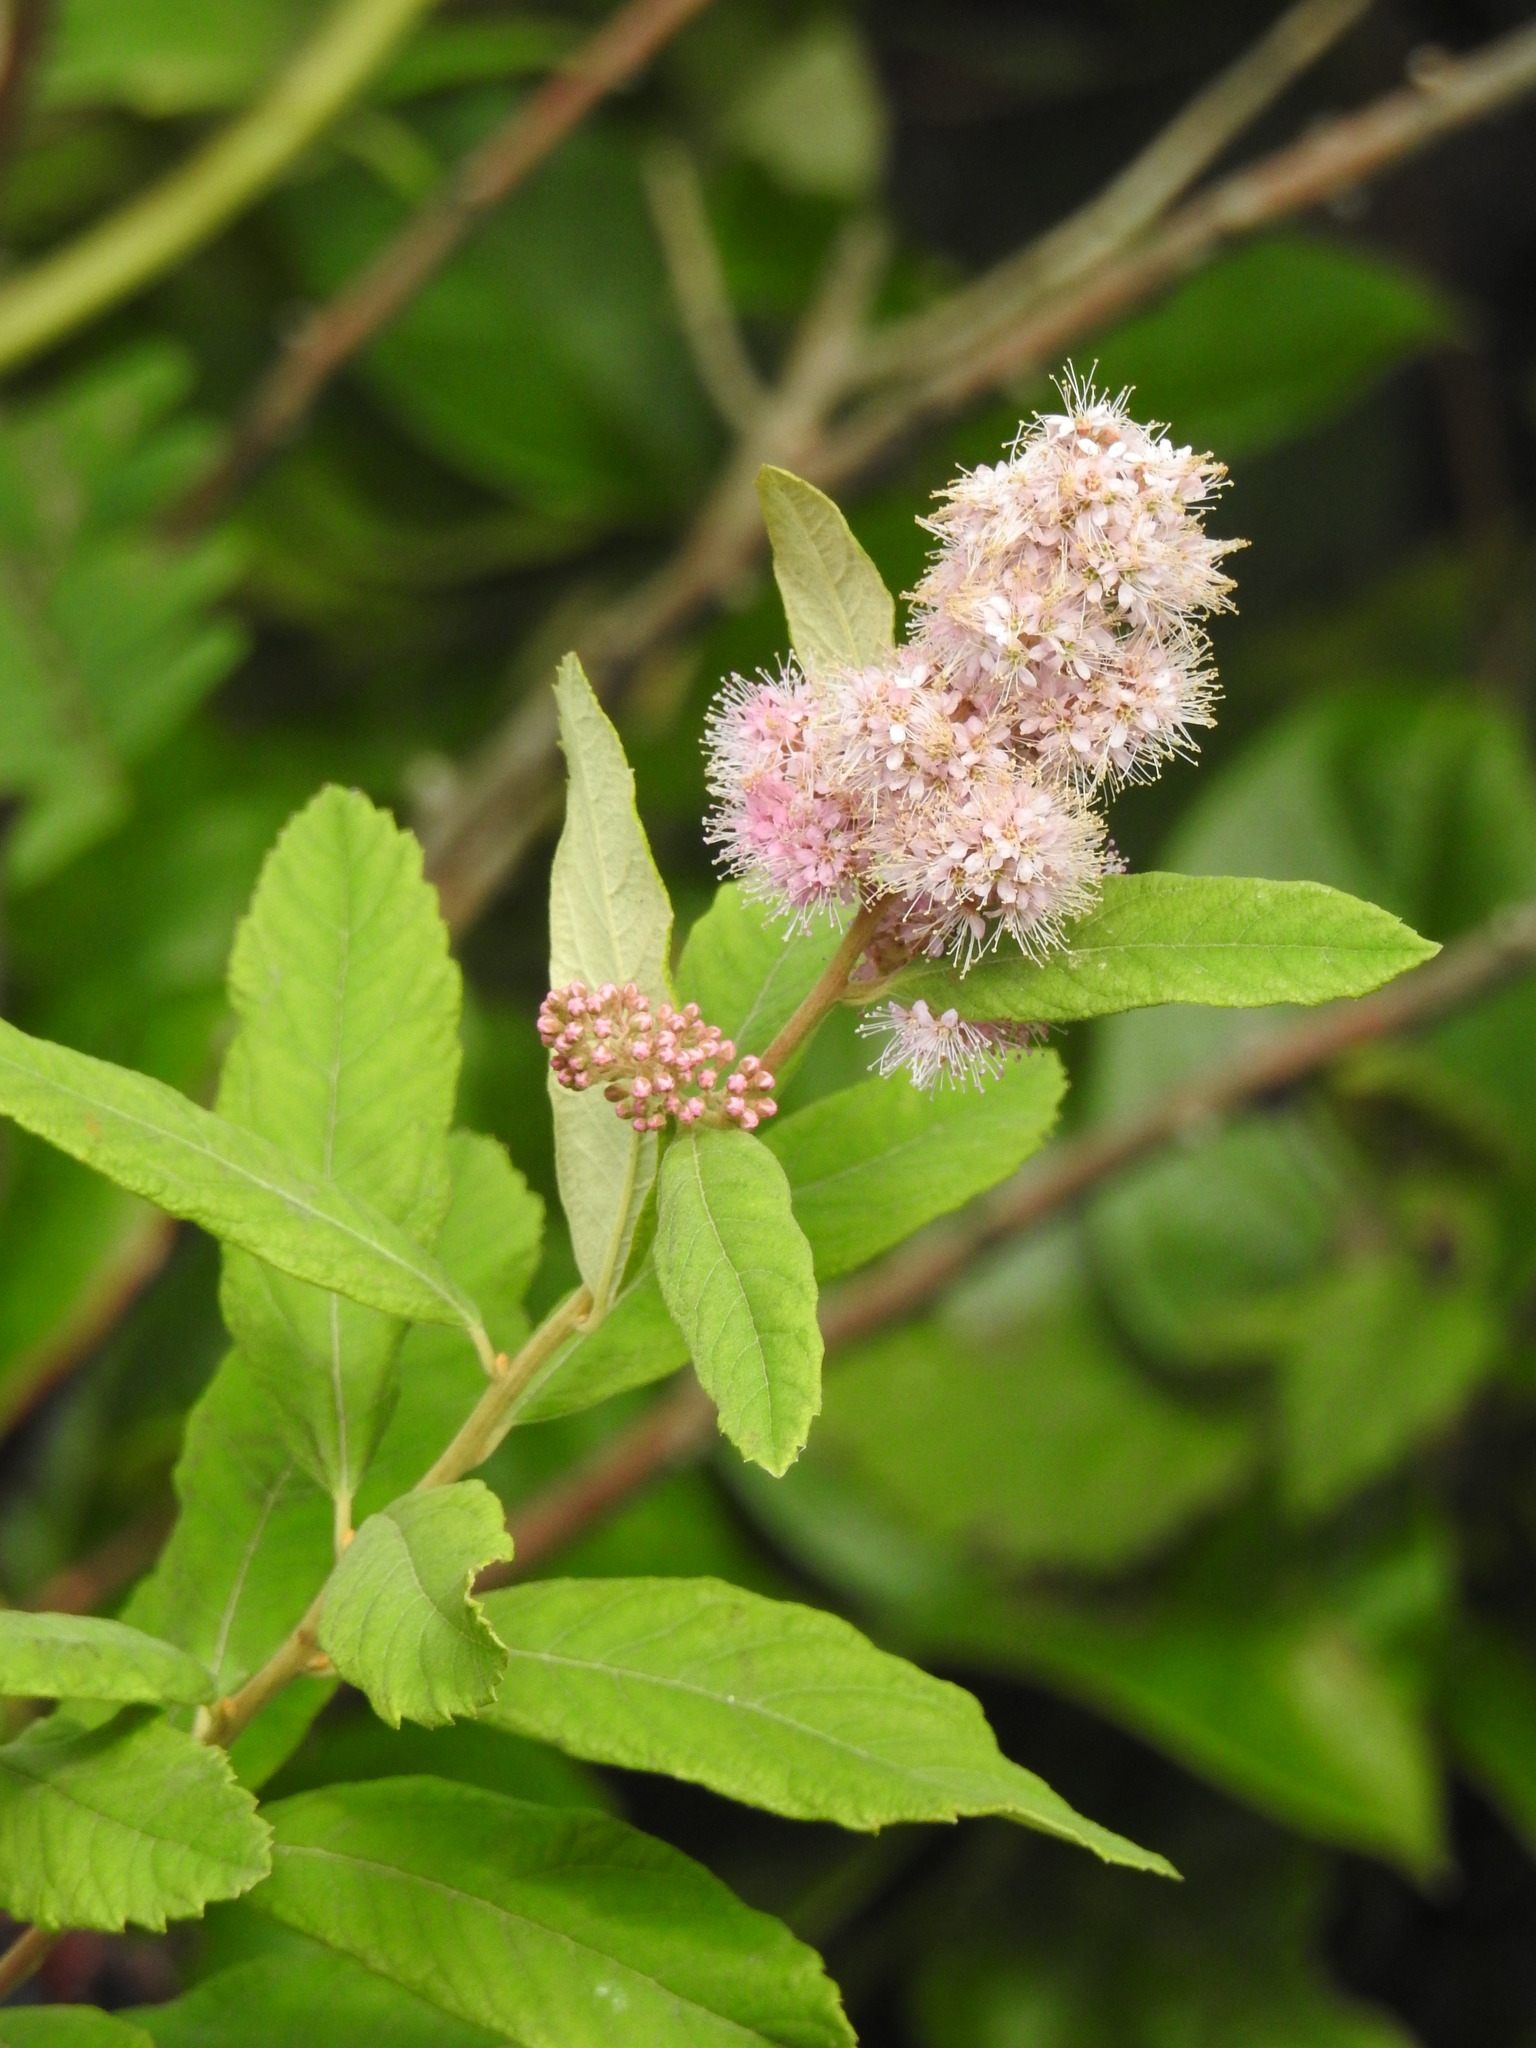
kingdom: Plantae
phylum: Tracheophyta
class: Magnoliopsida
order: Rosales
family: Rosaceae
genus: Spiraea
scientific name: Spiraea douglasii
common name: Steeplebush
